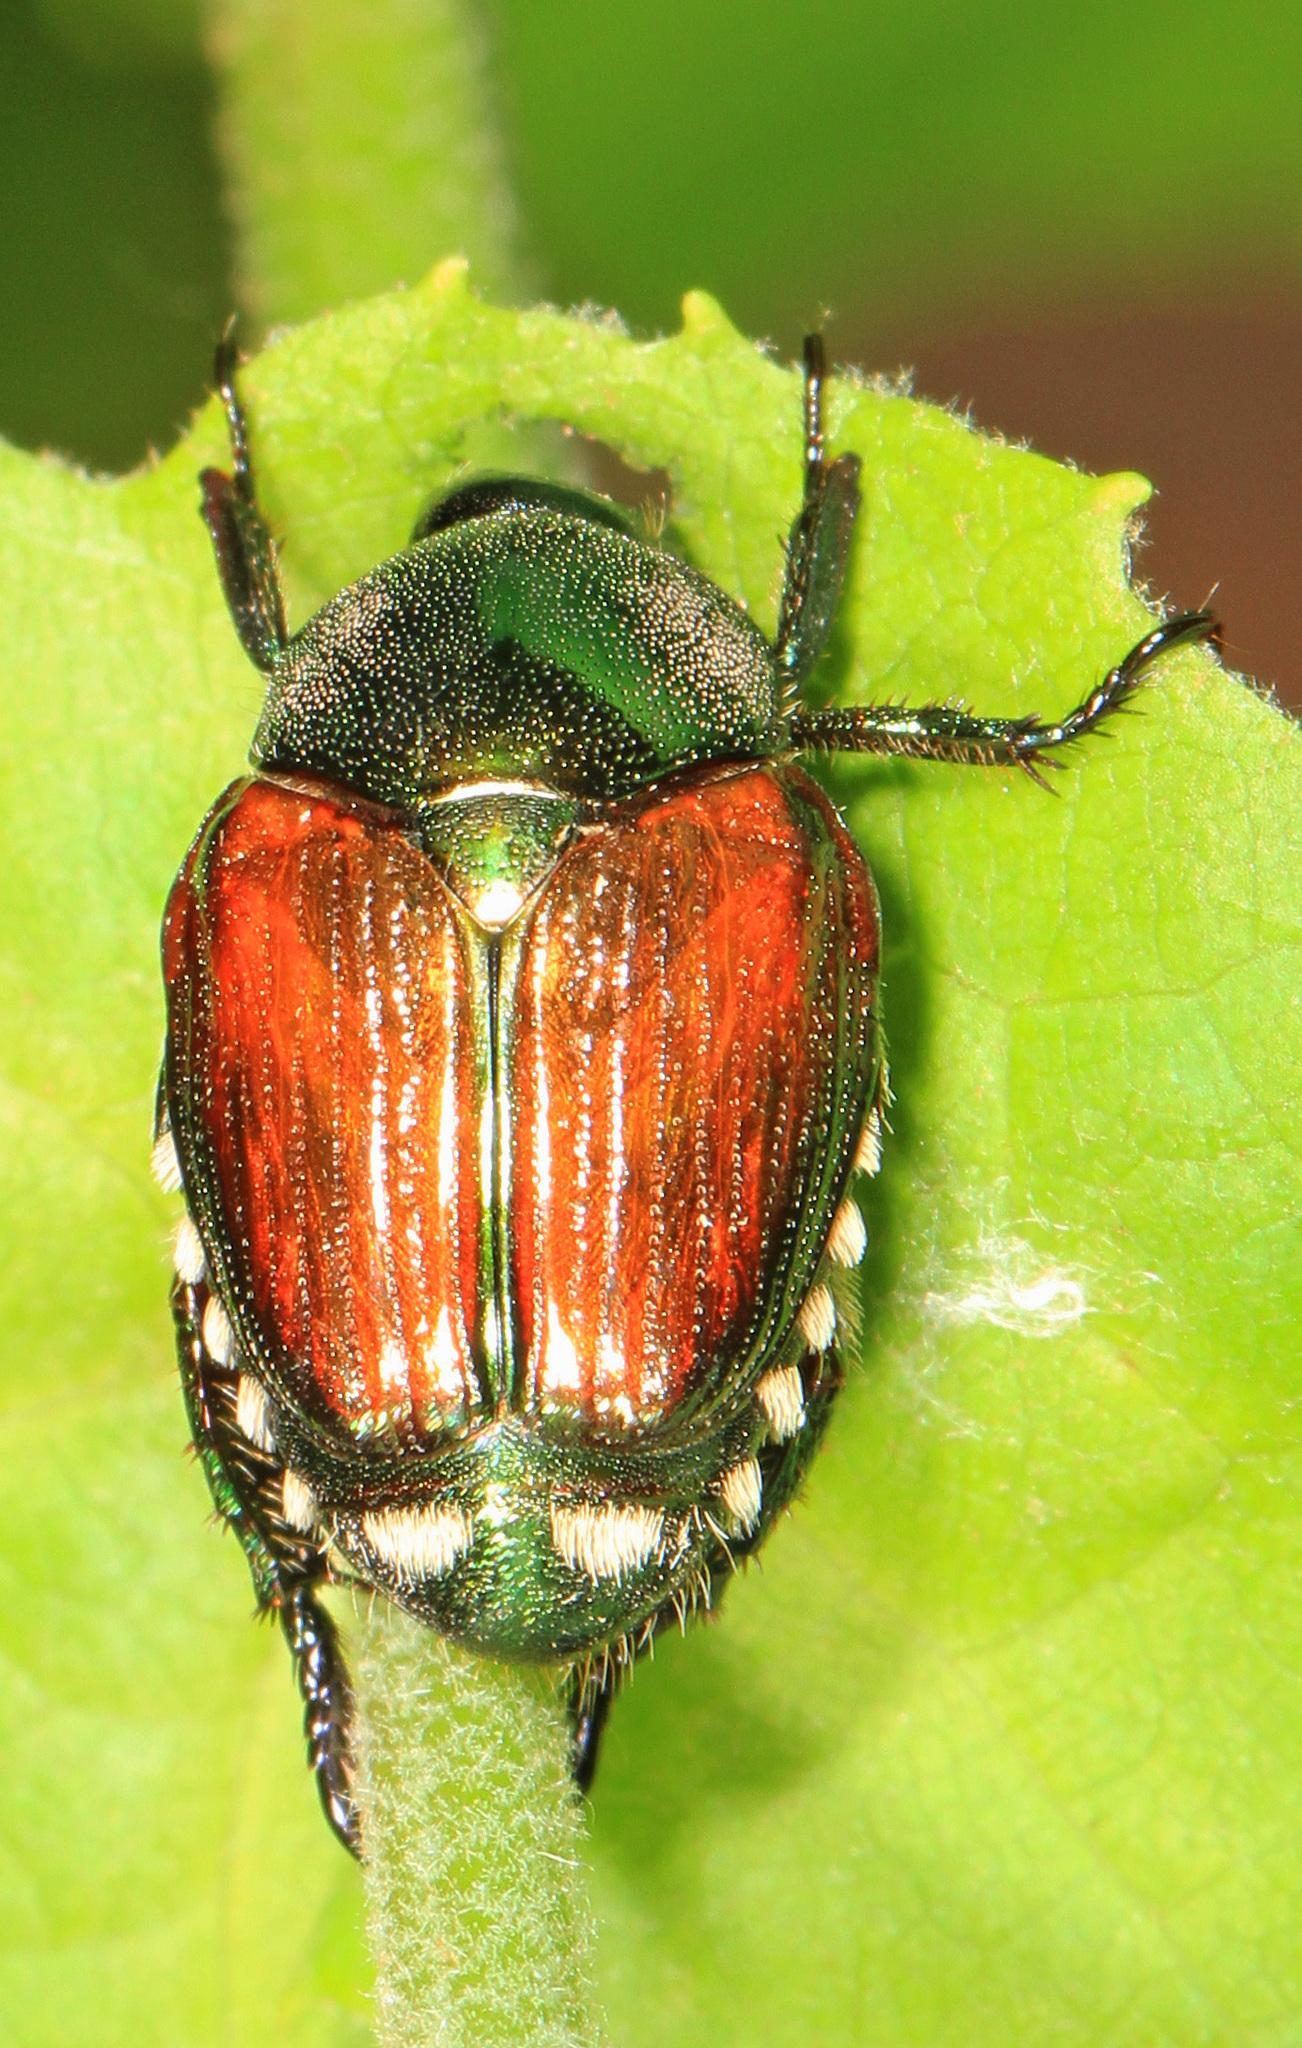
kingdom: Animalia
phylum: Arthropoda
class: Insecta
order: Coleoptera
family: Scarabaeidae
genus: Popillia
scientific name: Popillia japonica
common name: Japanese beetle
